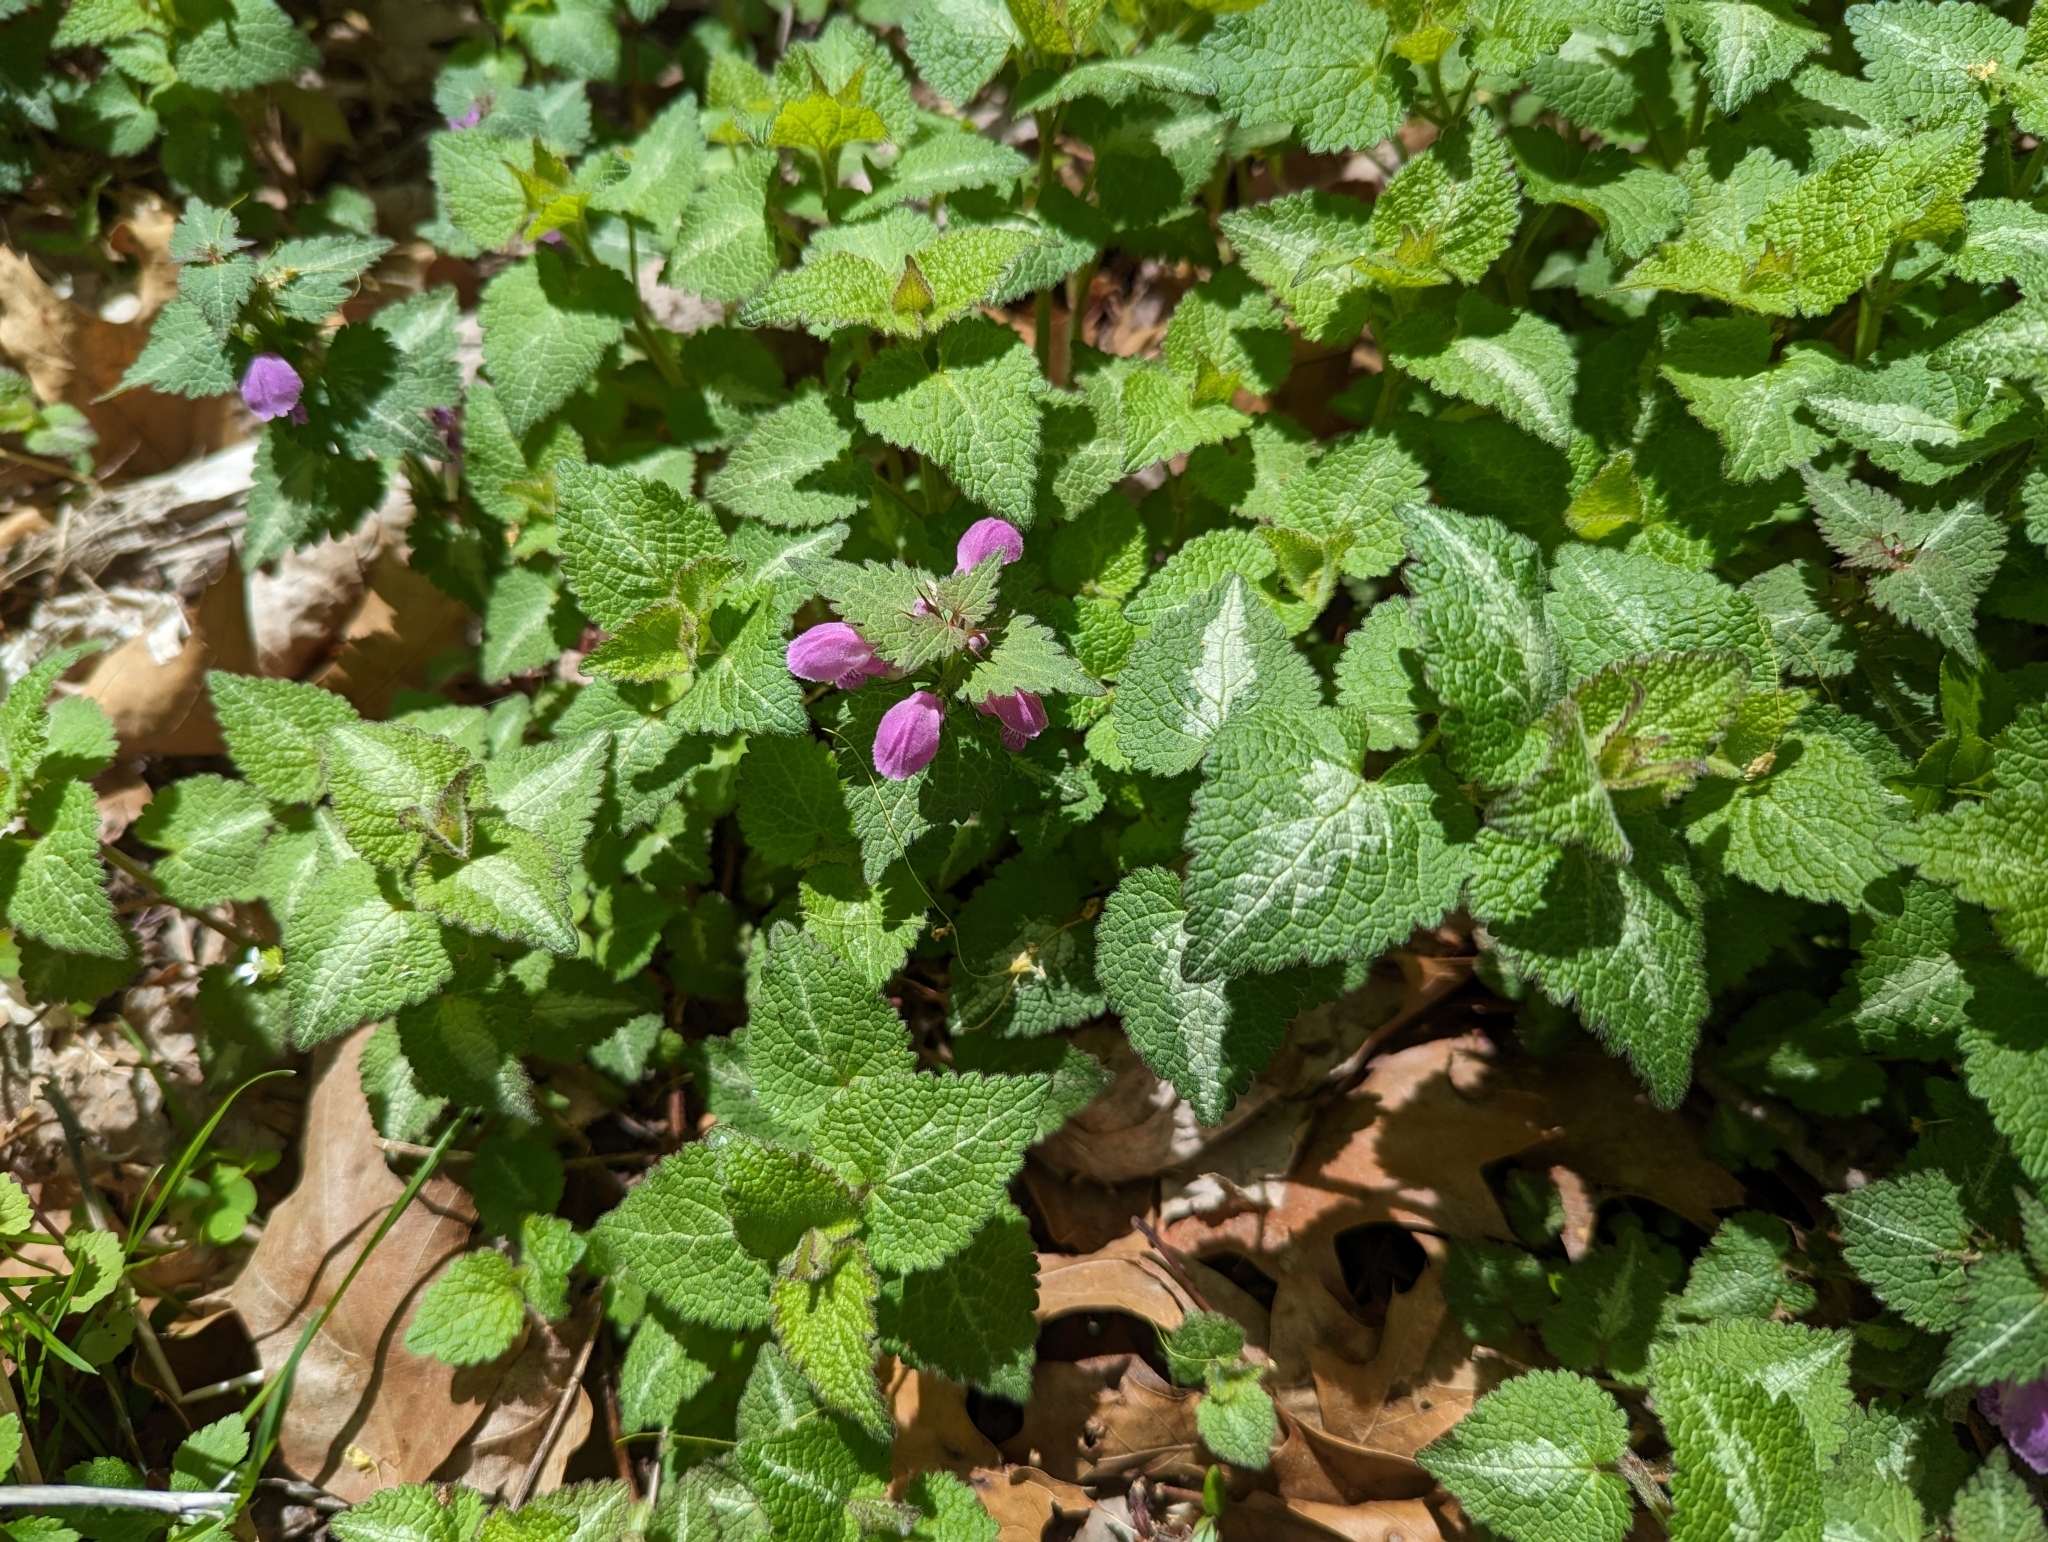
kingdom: Plantae
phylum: Tracheophyta
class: Magnoliopsida
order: Lamiales
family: Lamiaceae
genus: Lamium
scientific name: Lamium maculatum
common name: Spotted dead-nettle
